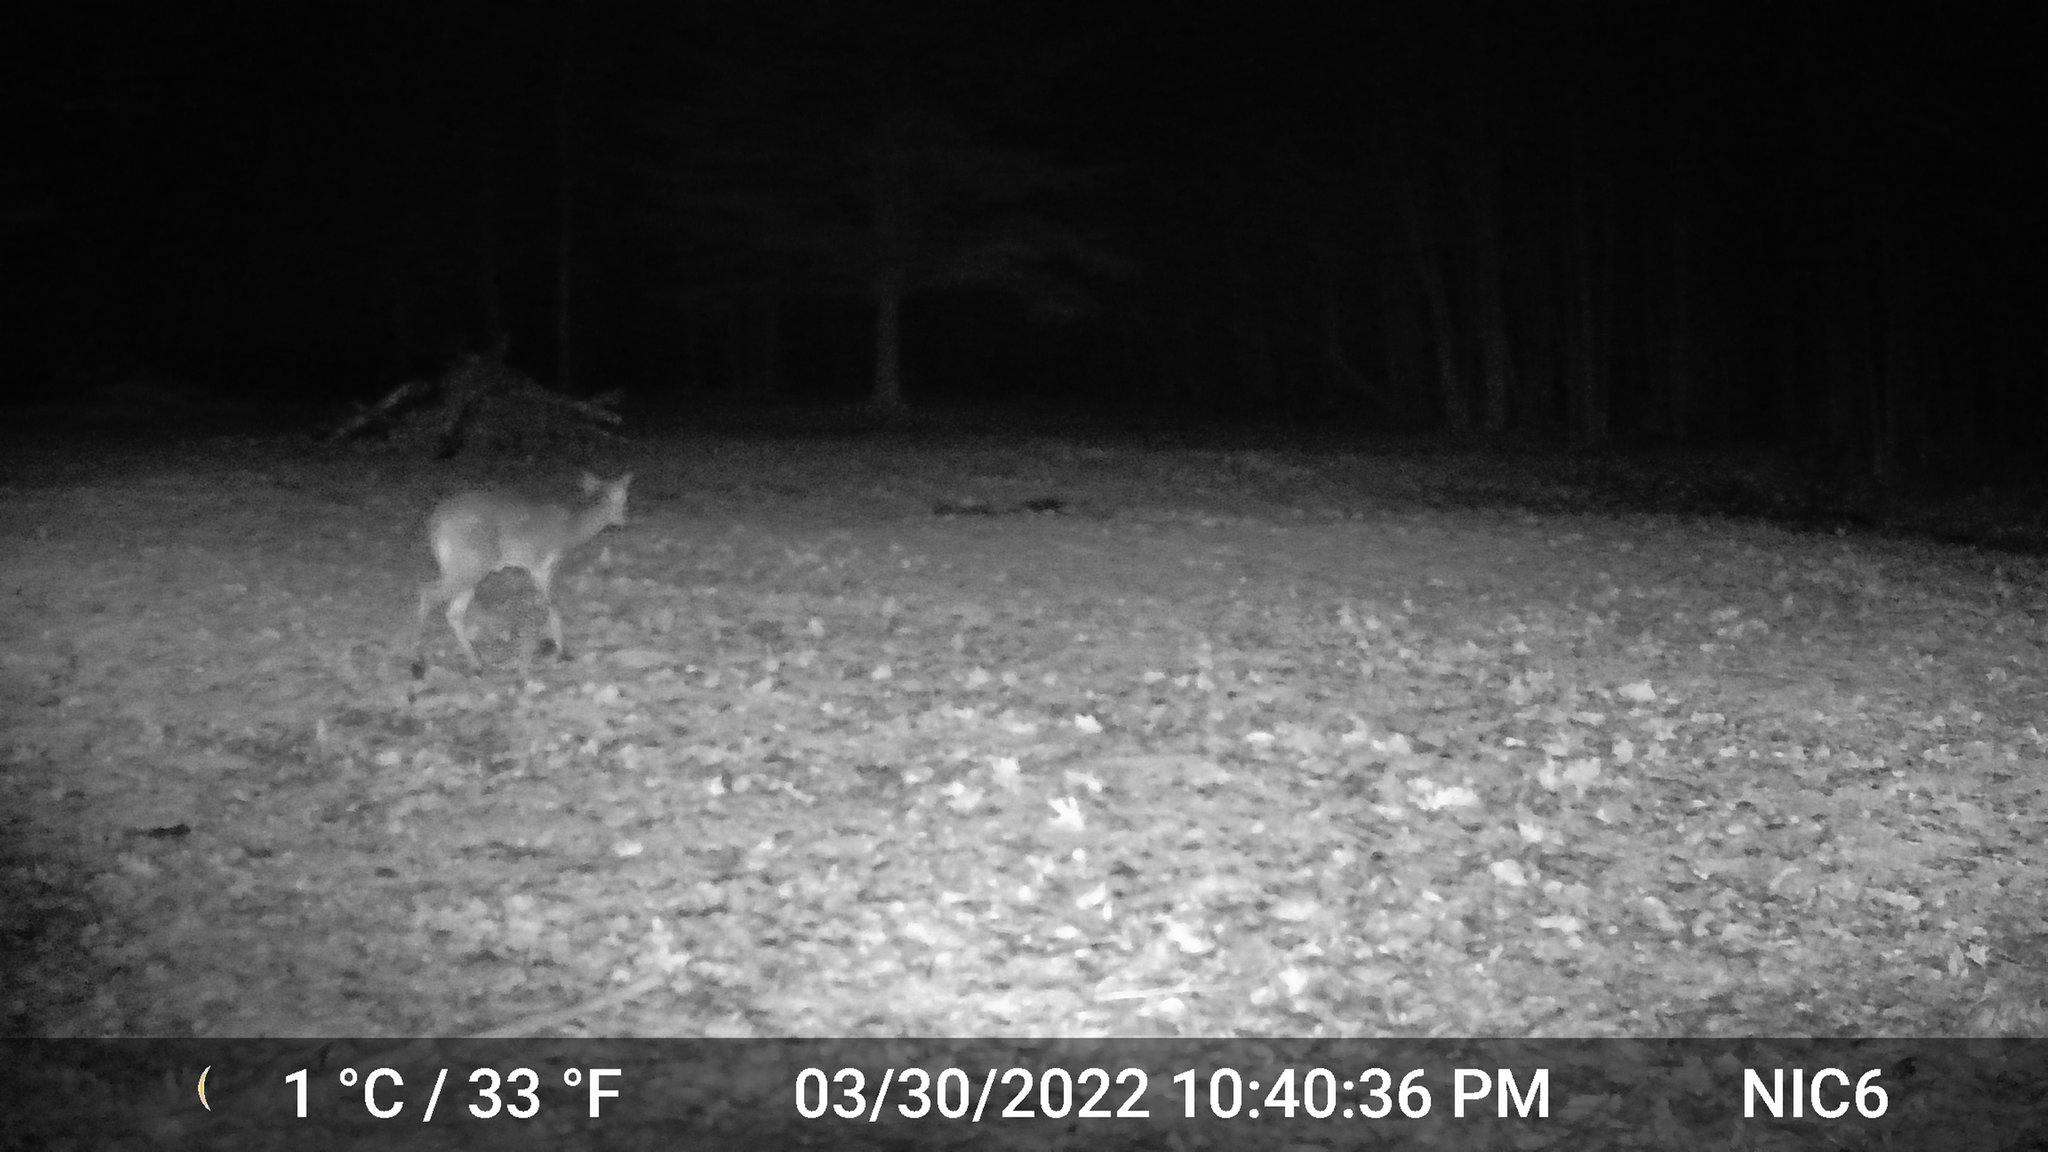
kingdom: Animalia
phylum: Chordata
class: Mammalia
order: Artiodactyla
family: Cervidae
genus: Odocoileus
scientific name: Odocoileus virginianus
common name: White-tailed deer
